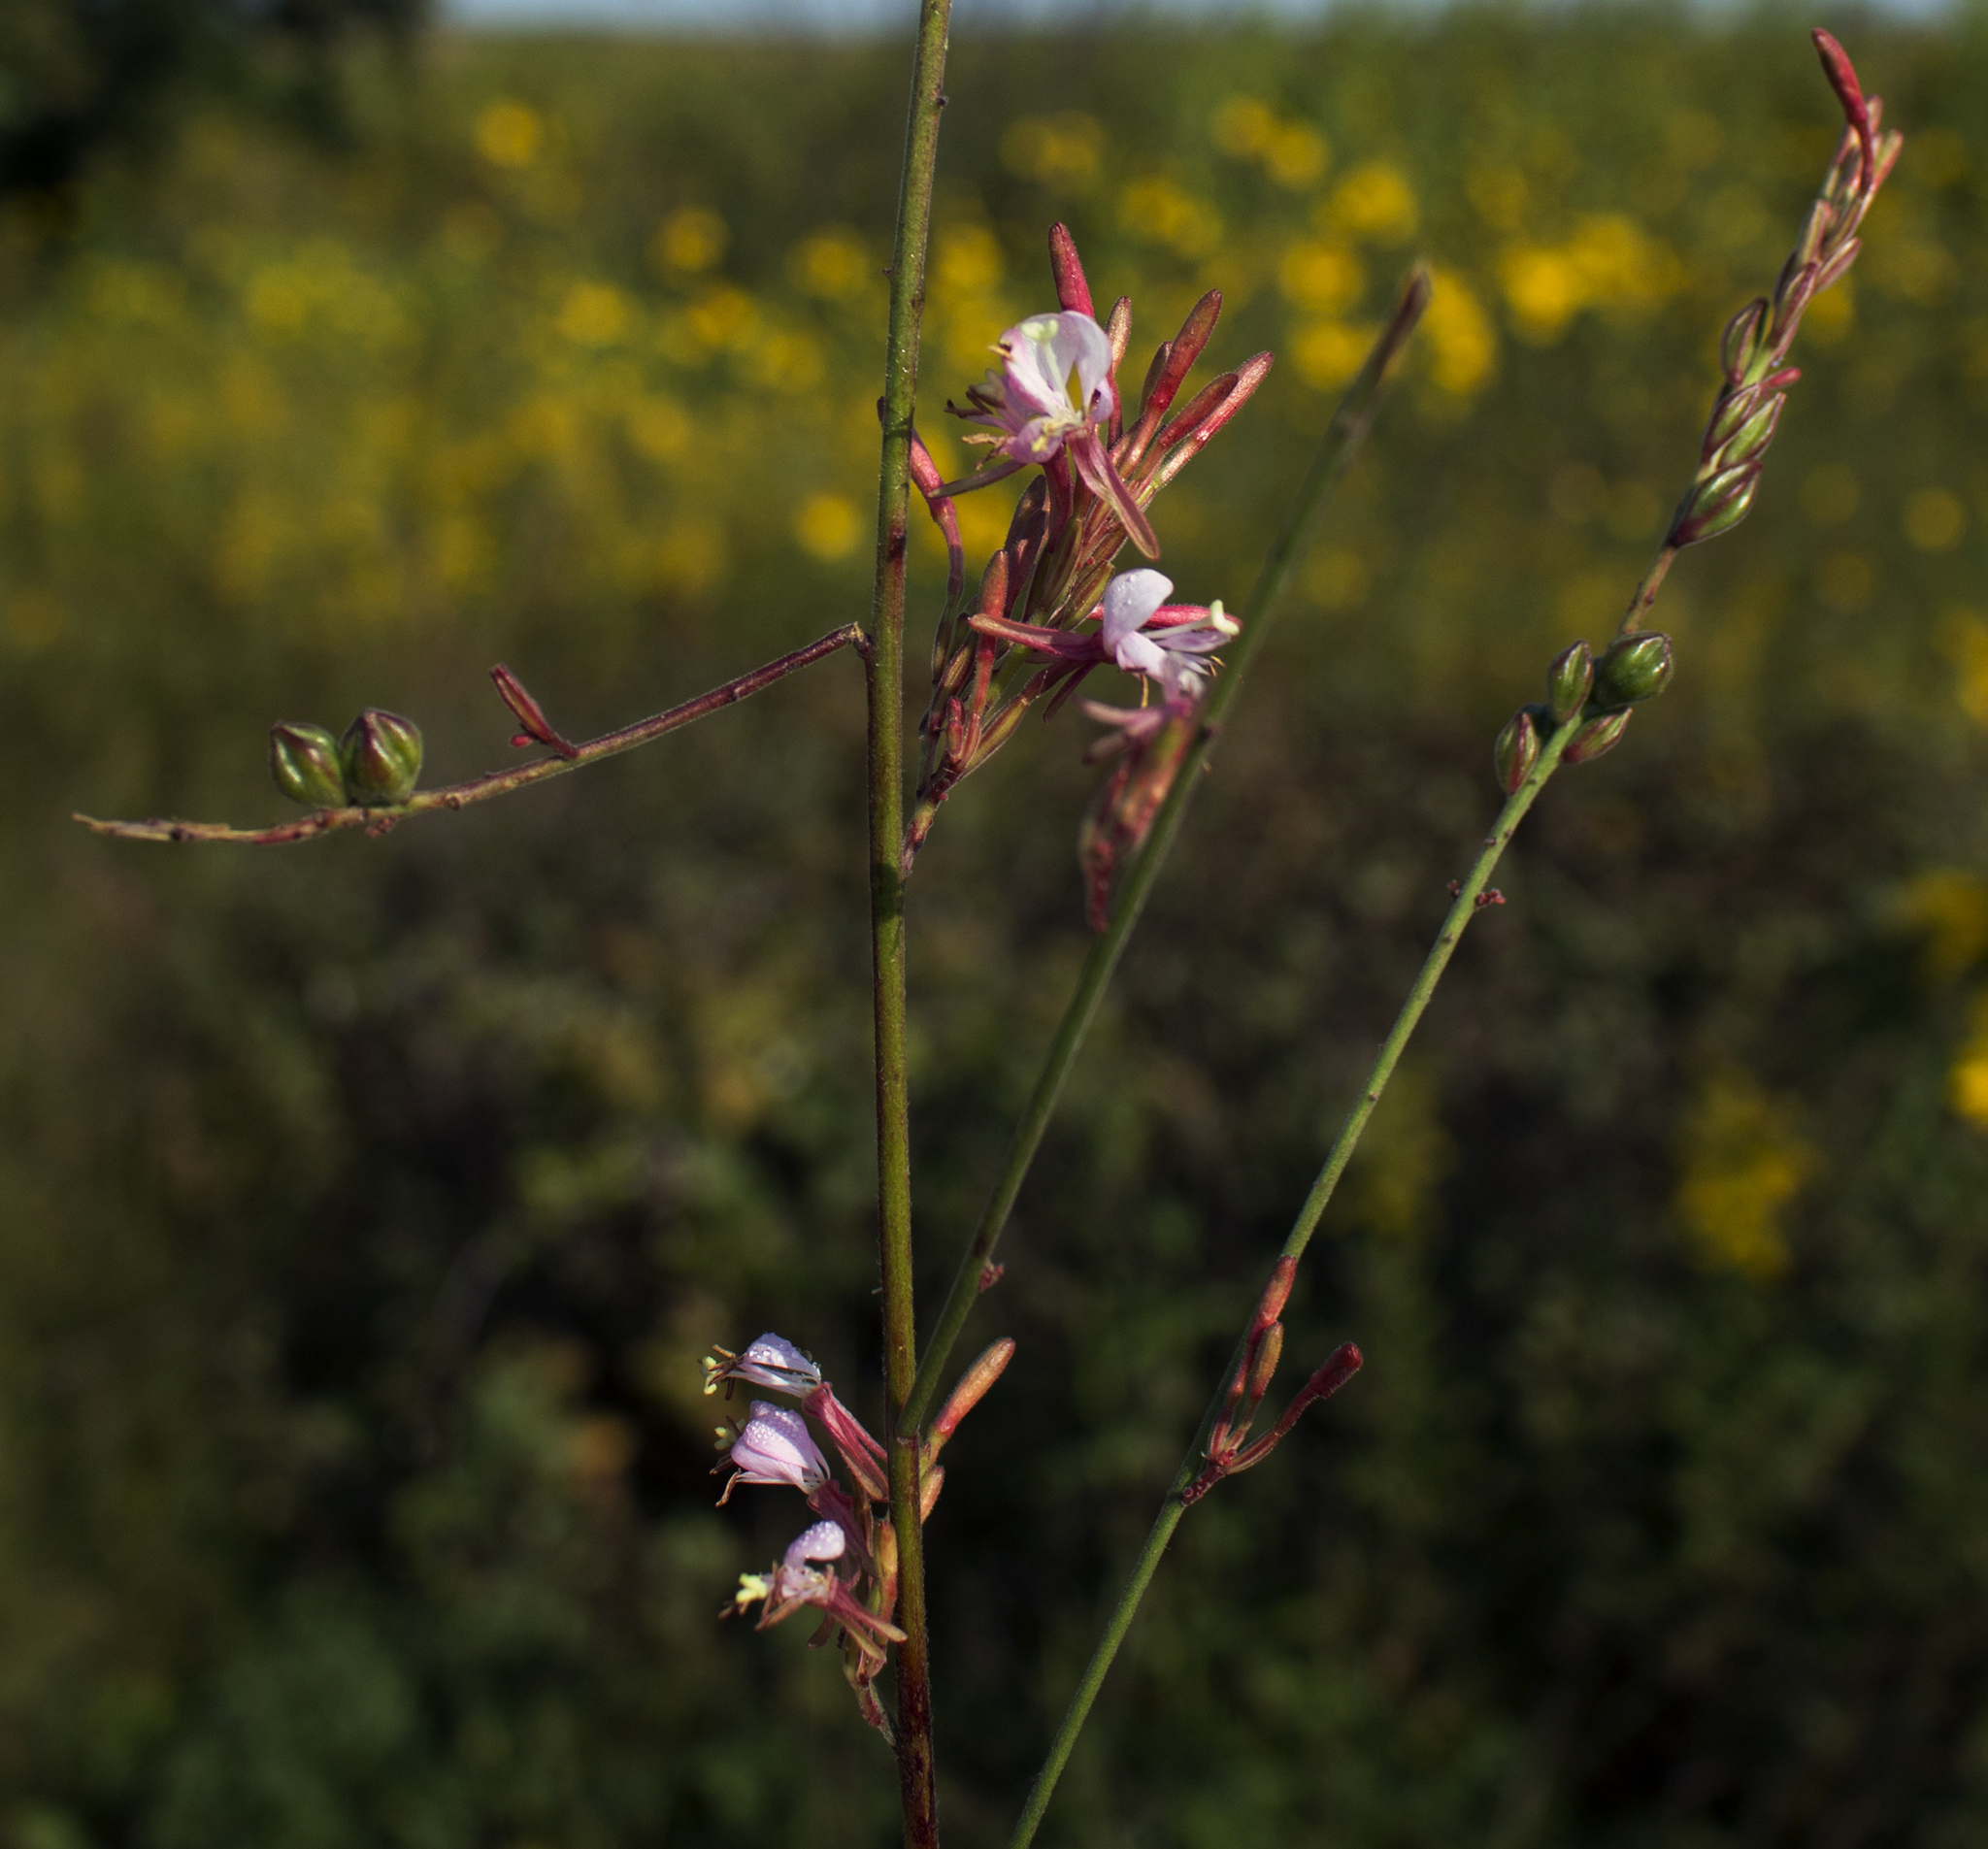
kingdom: Plantae
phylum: Tracheophyta
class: Magnoliopsida
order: Myrtales
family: Onagraceae
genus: Oenothera
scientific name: Oenothera gaura
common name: Biennial beeblossom
